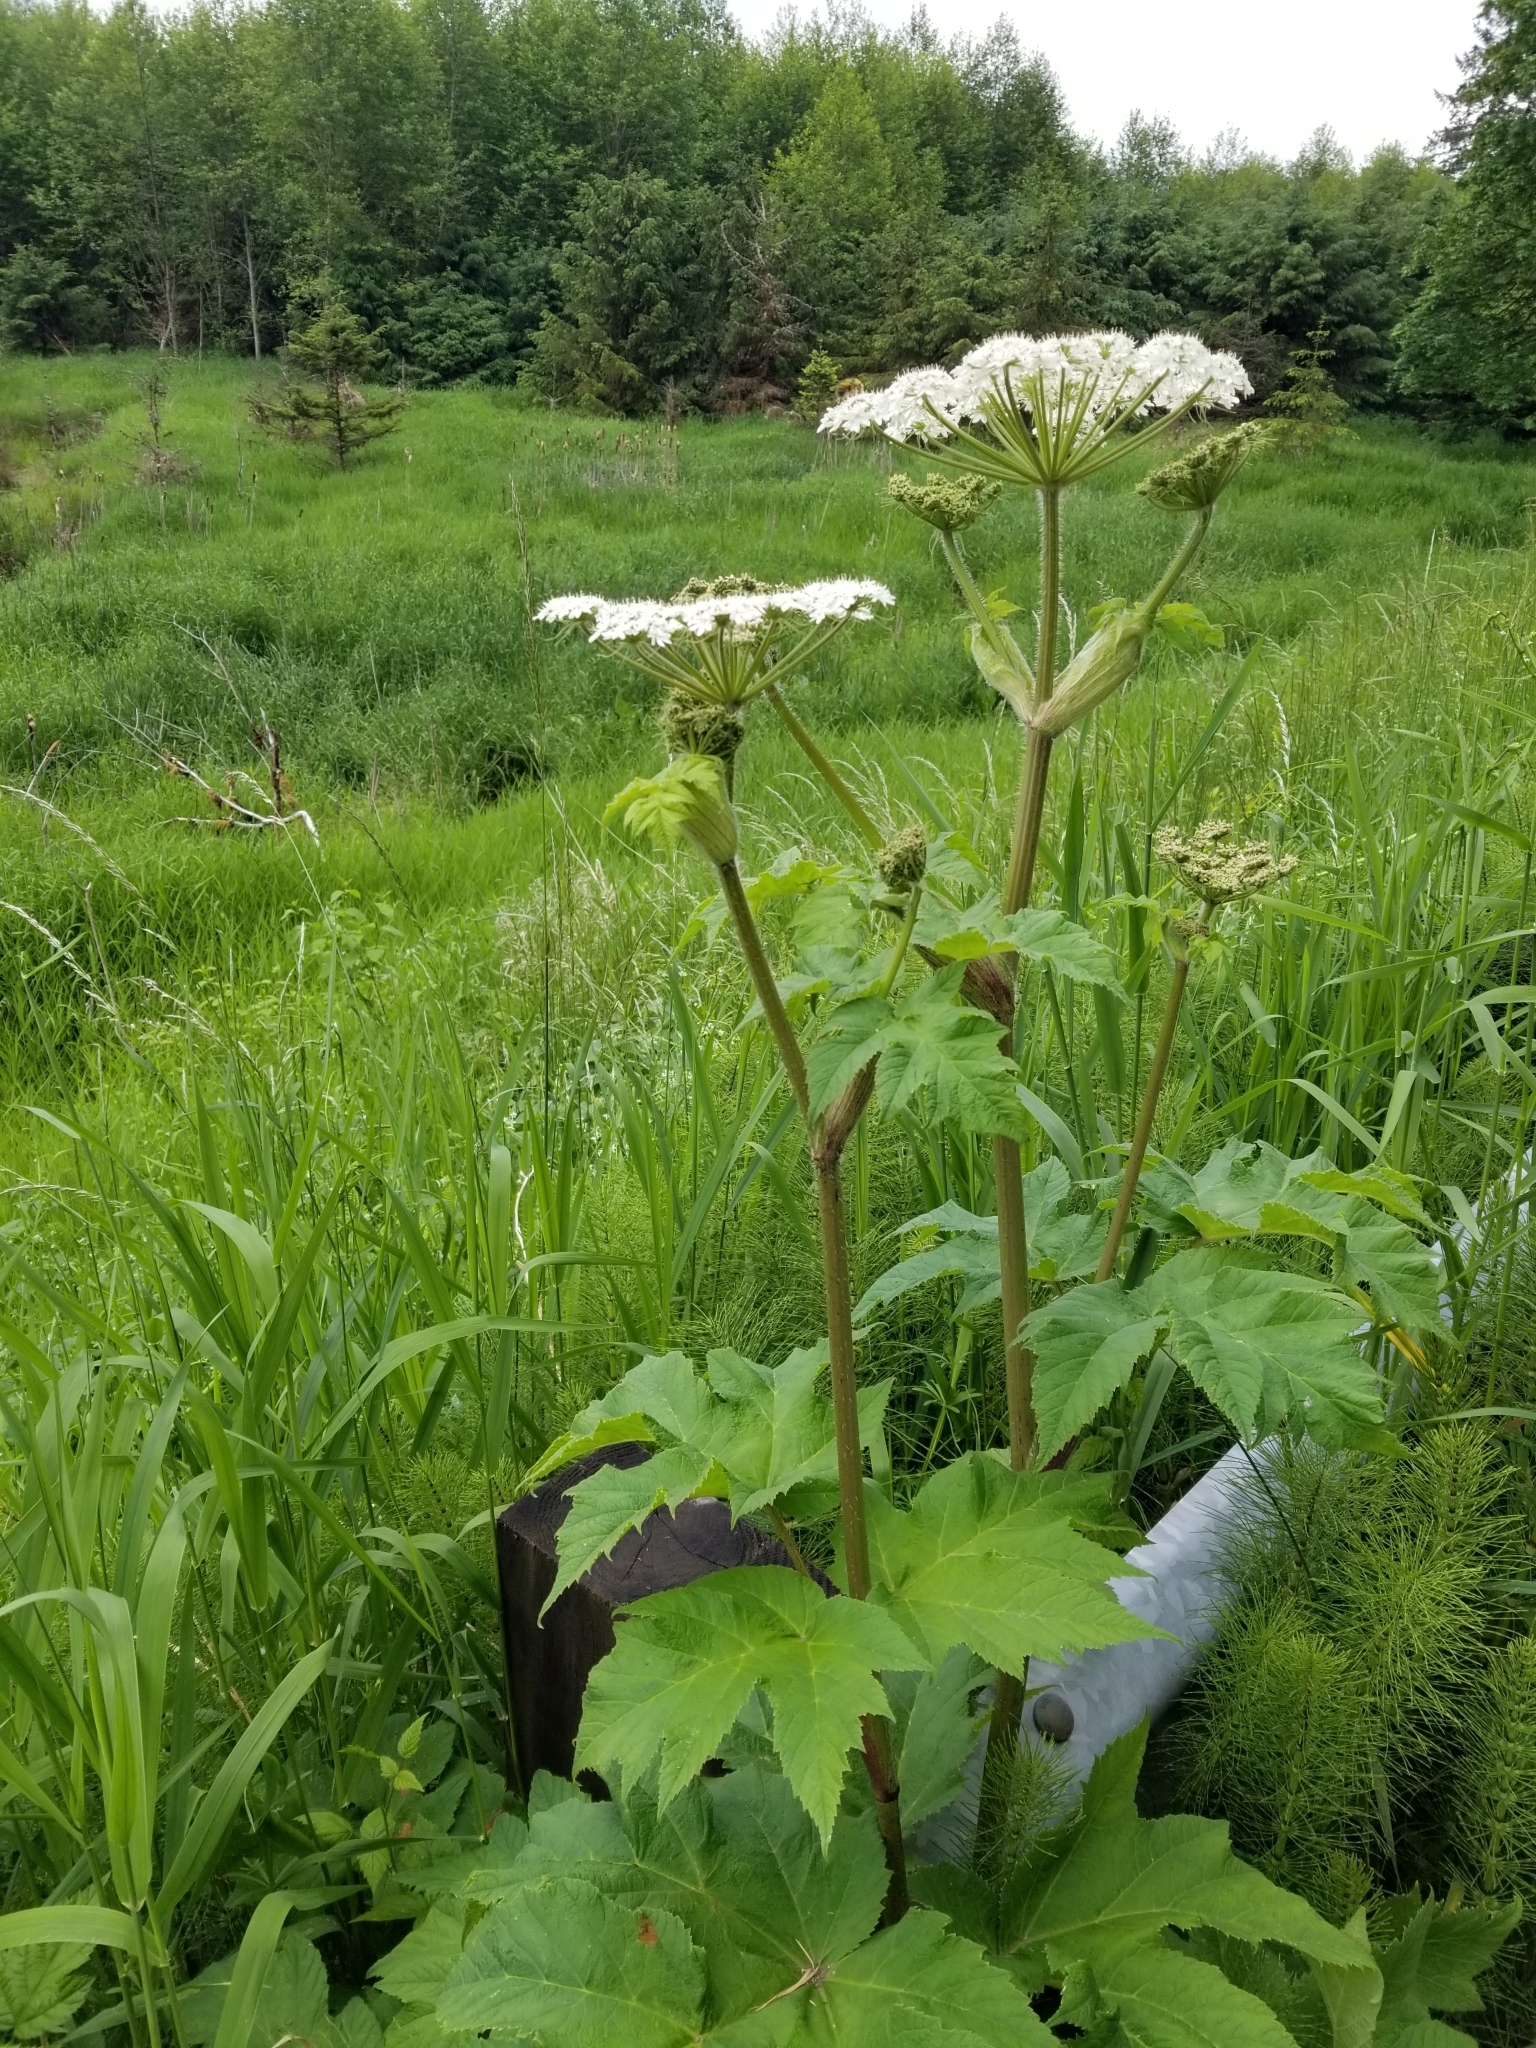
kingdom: Plantae
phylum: Tracheophyta
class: Magnoliopsida
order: Apiales
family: Apiaceae
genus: Heracleum
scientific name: Heracleum maximum
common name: American cow parsnip
